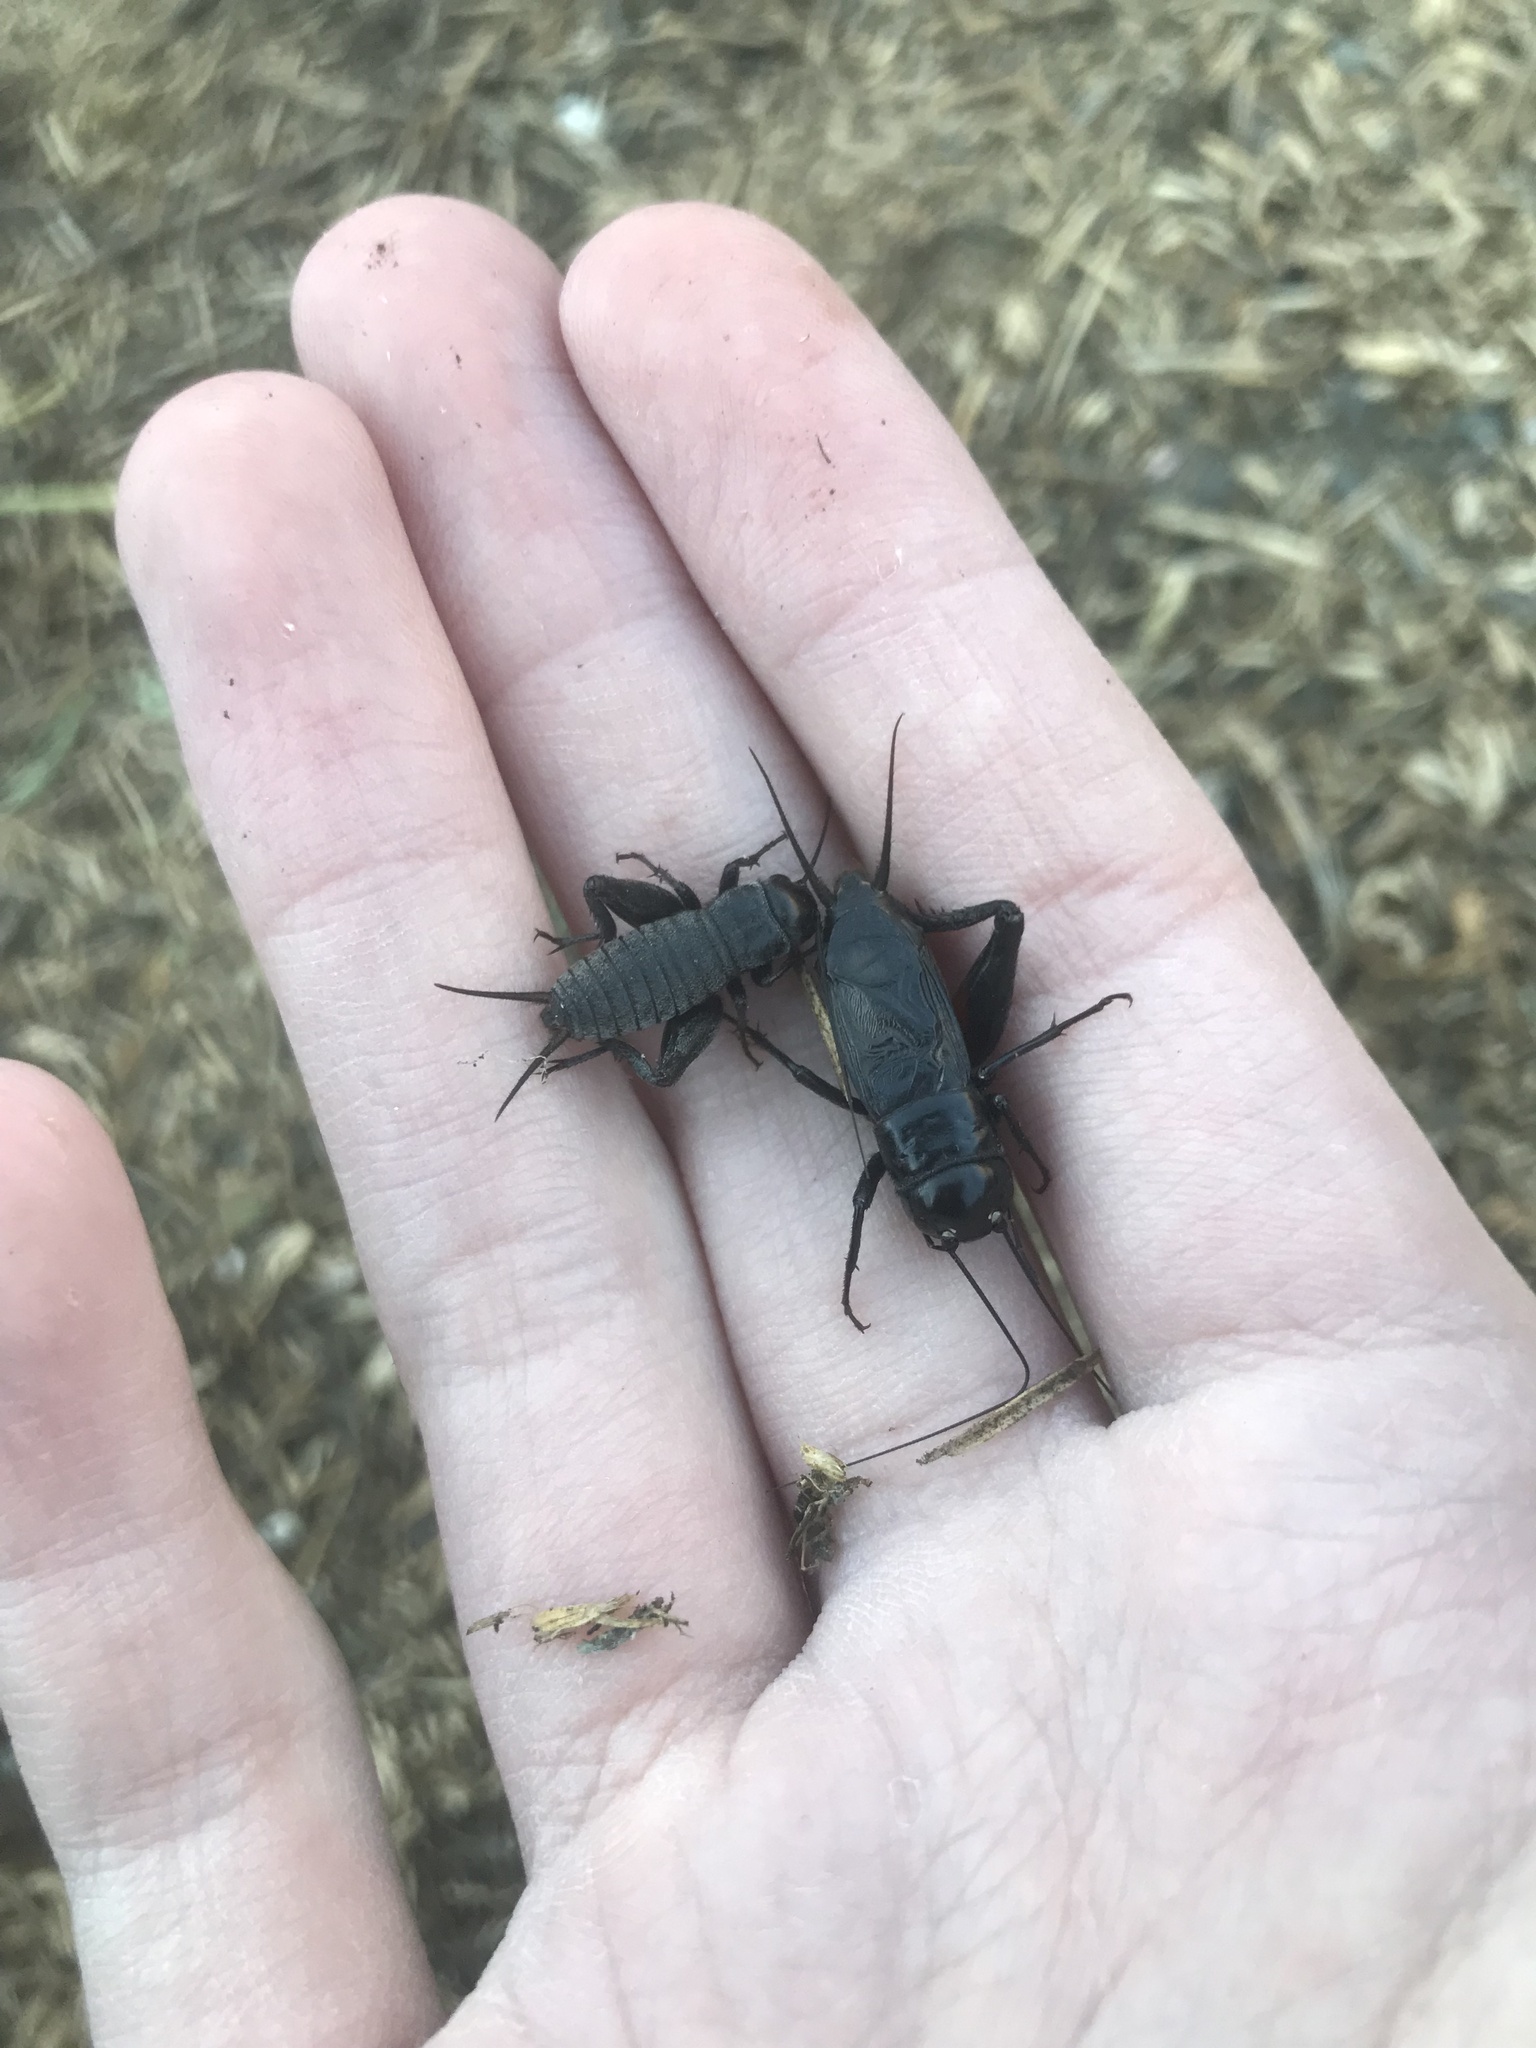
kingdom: Animalia
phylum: Arthropoda
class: Insecta
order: Orthoptera
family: Gryllidae
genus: Gryllus
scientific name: Gryllus pennsylvanicus
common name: Fall field cricket
